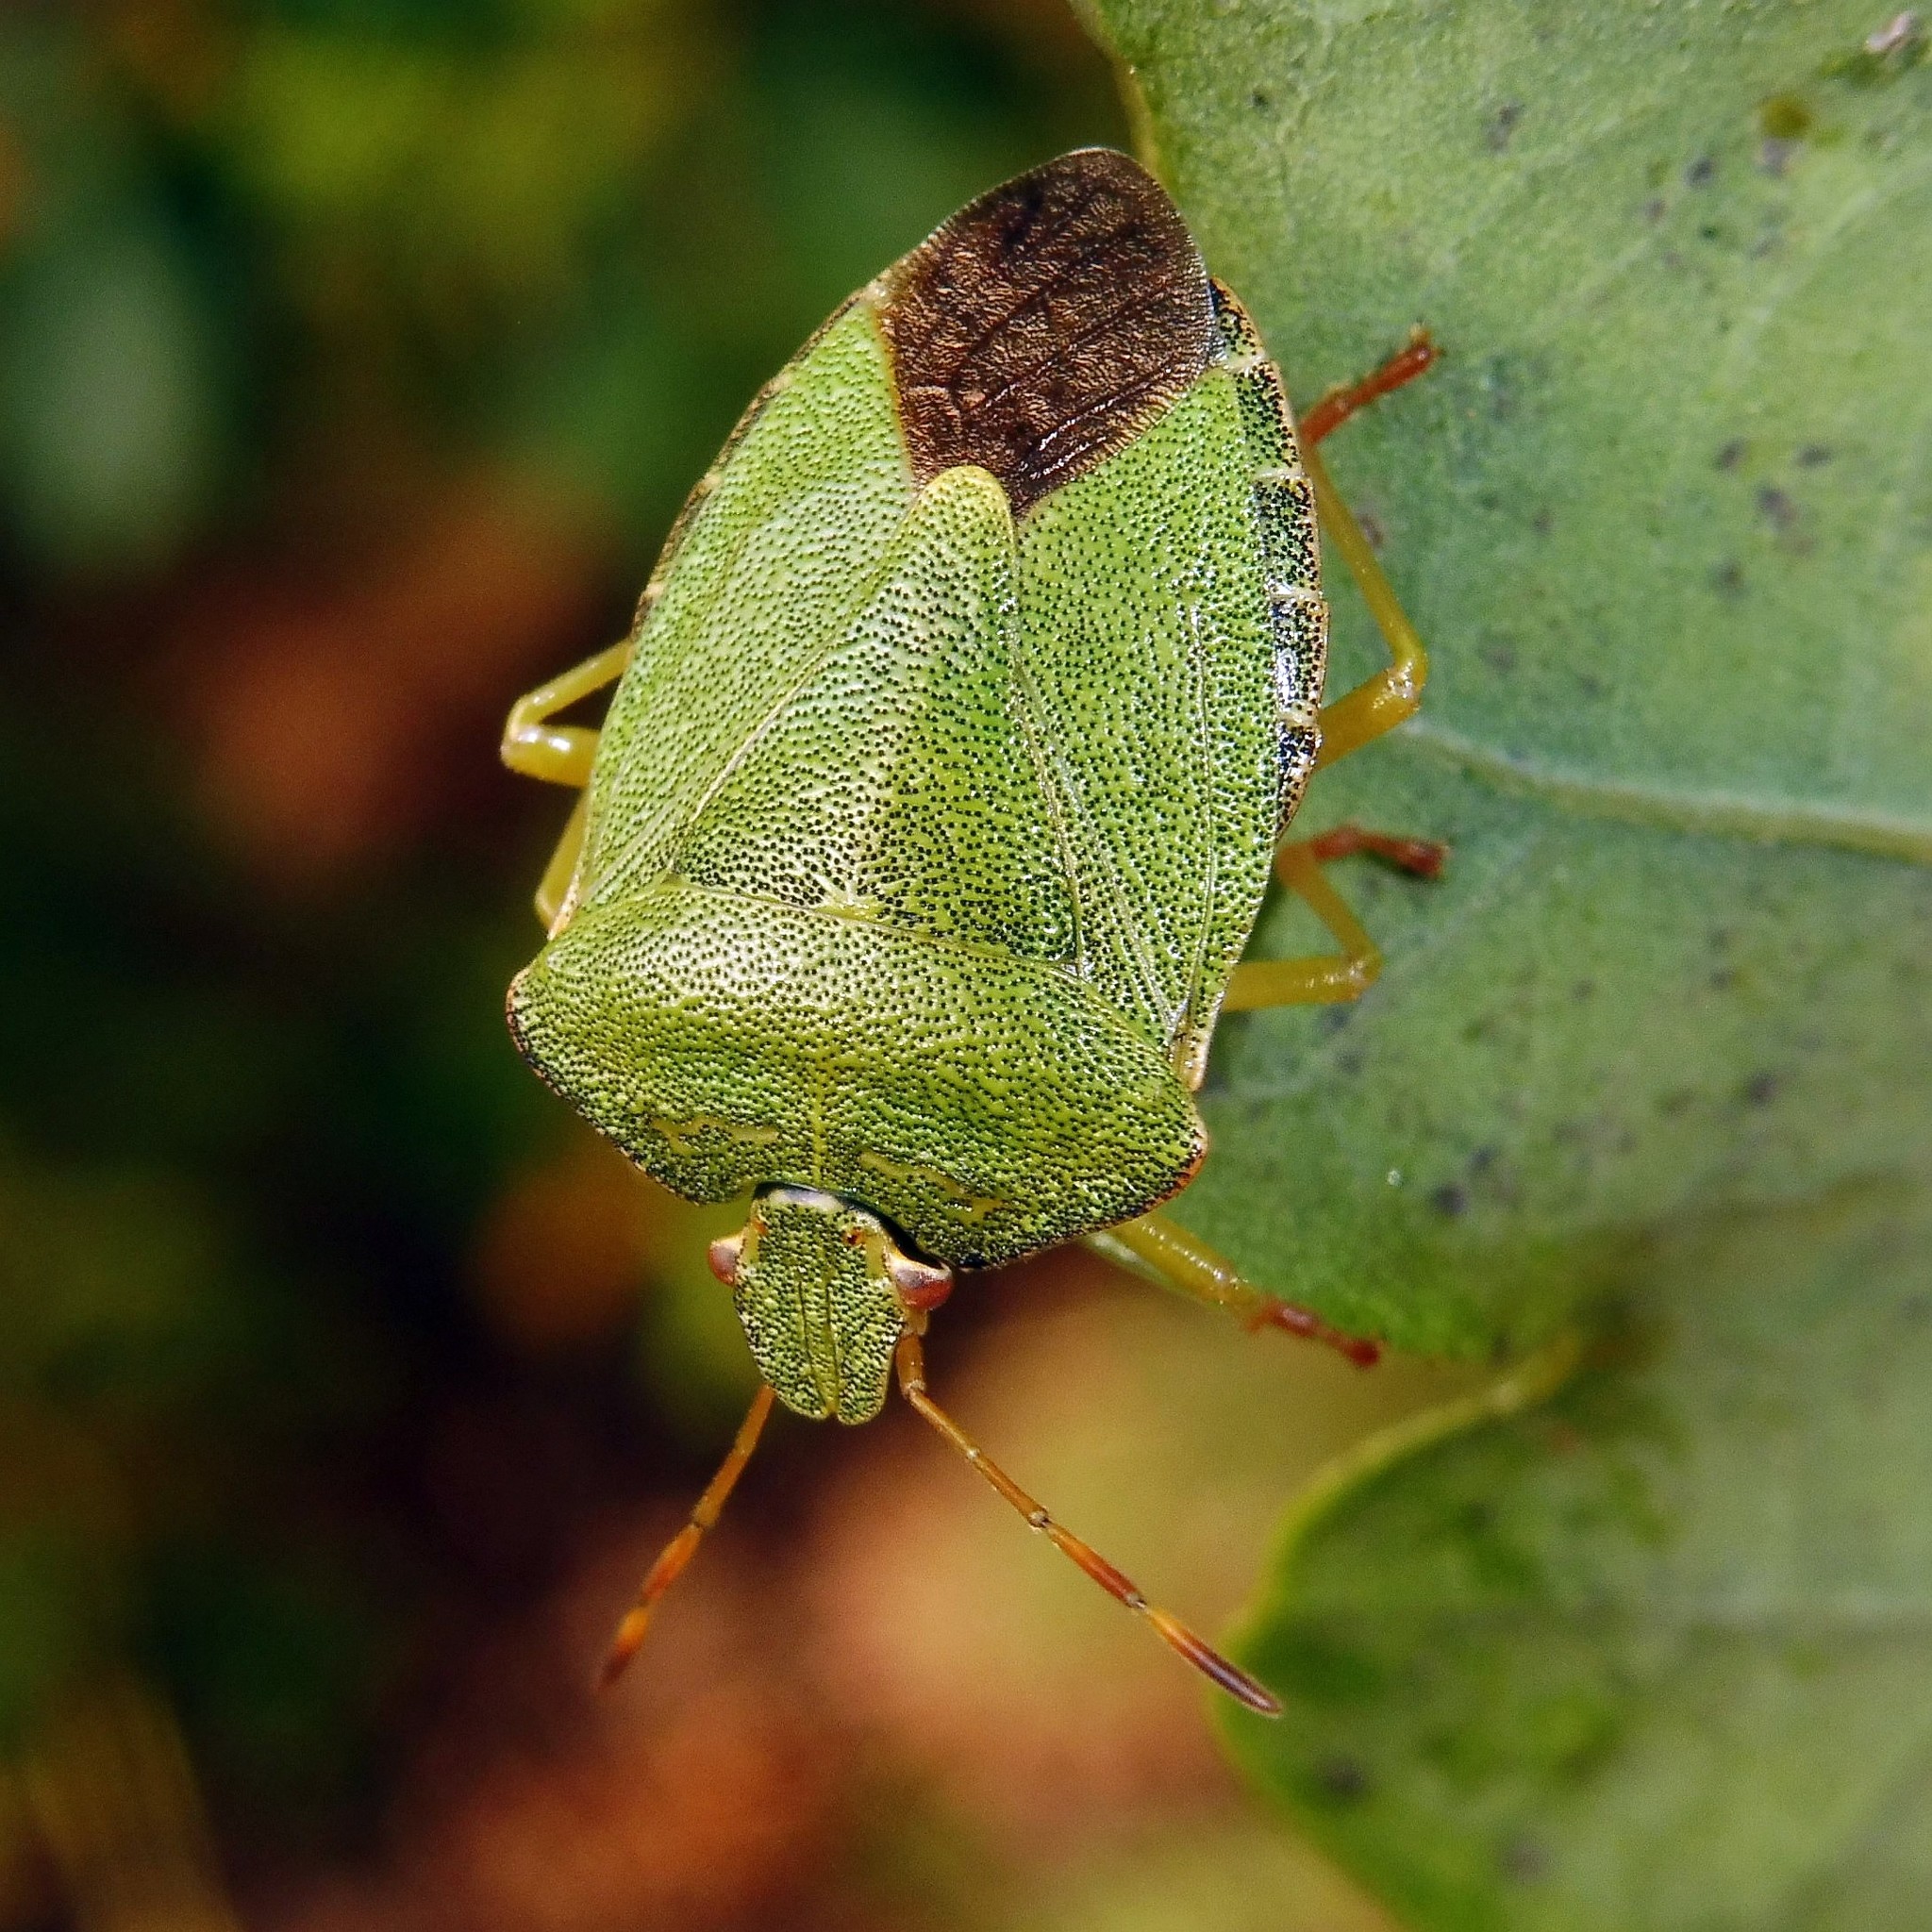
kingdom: Animalia
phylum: Arthropoda
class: Insecta
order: Hemiptera
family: Pentatomidae
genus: Palomena
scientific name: Palomena prasina
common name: Green shieldbug
